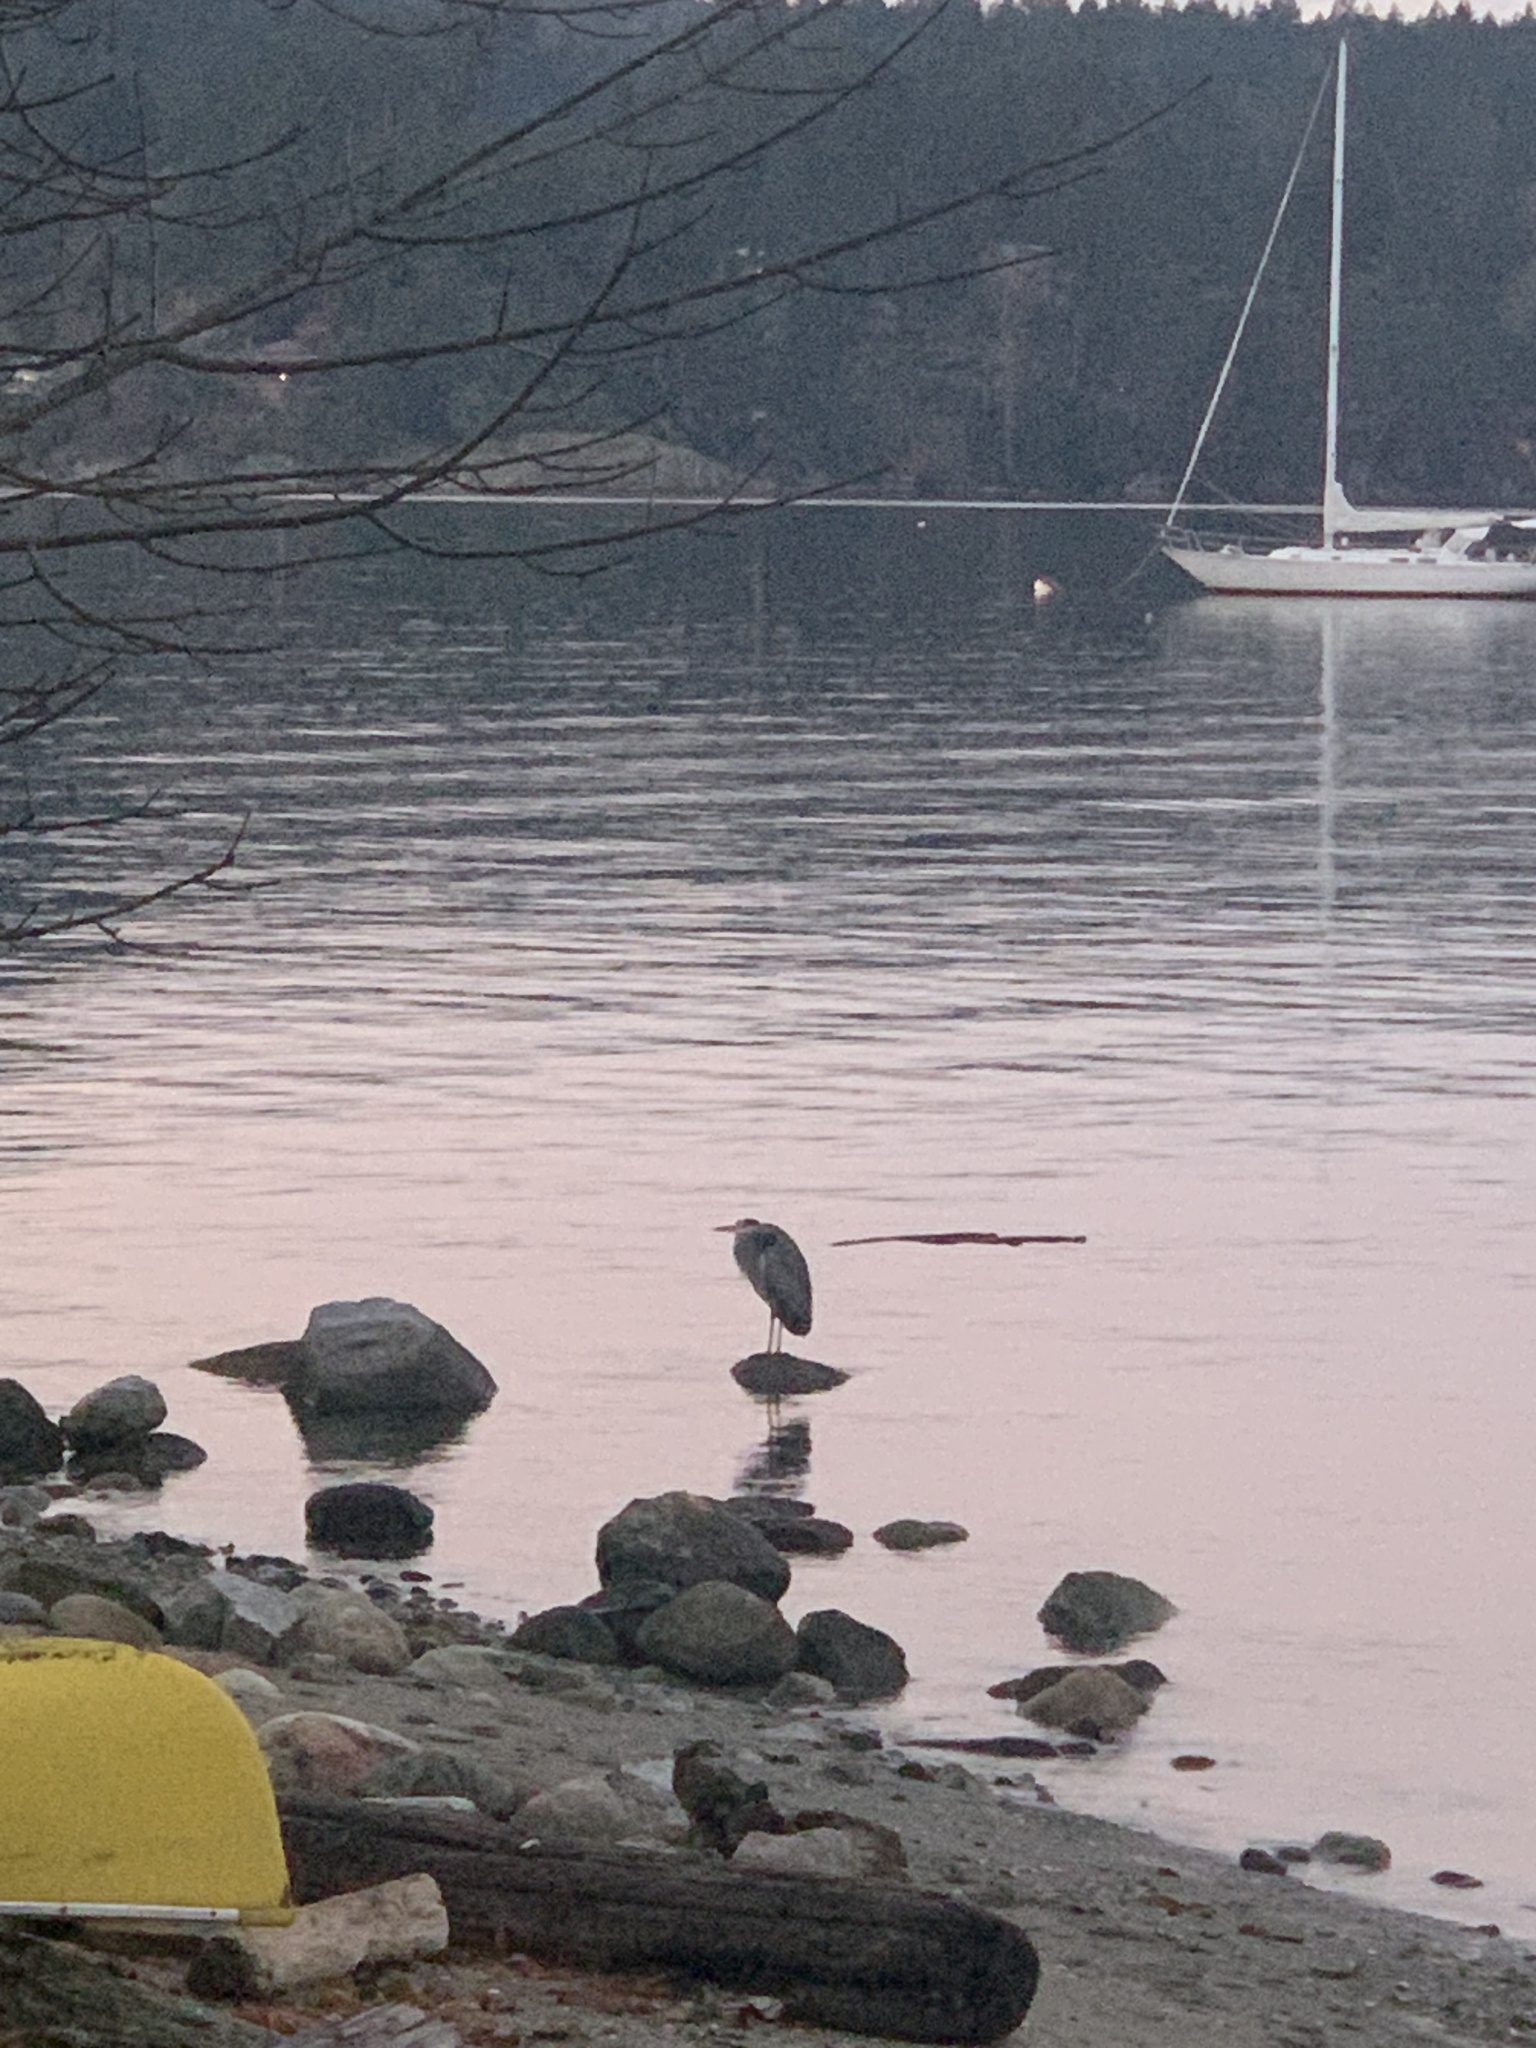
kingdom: Animalia
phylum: Chordata
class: Aves
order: Pelecaniformes
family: Ardeidae
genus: Ardea
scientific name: Ardea herodias
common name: Great blue heron
